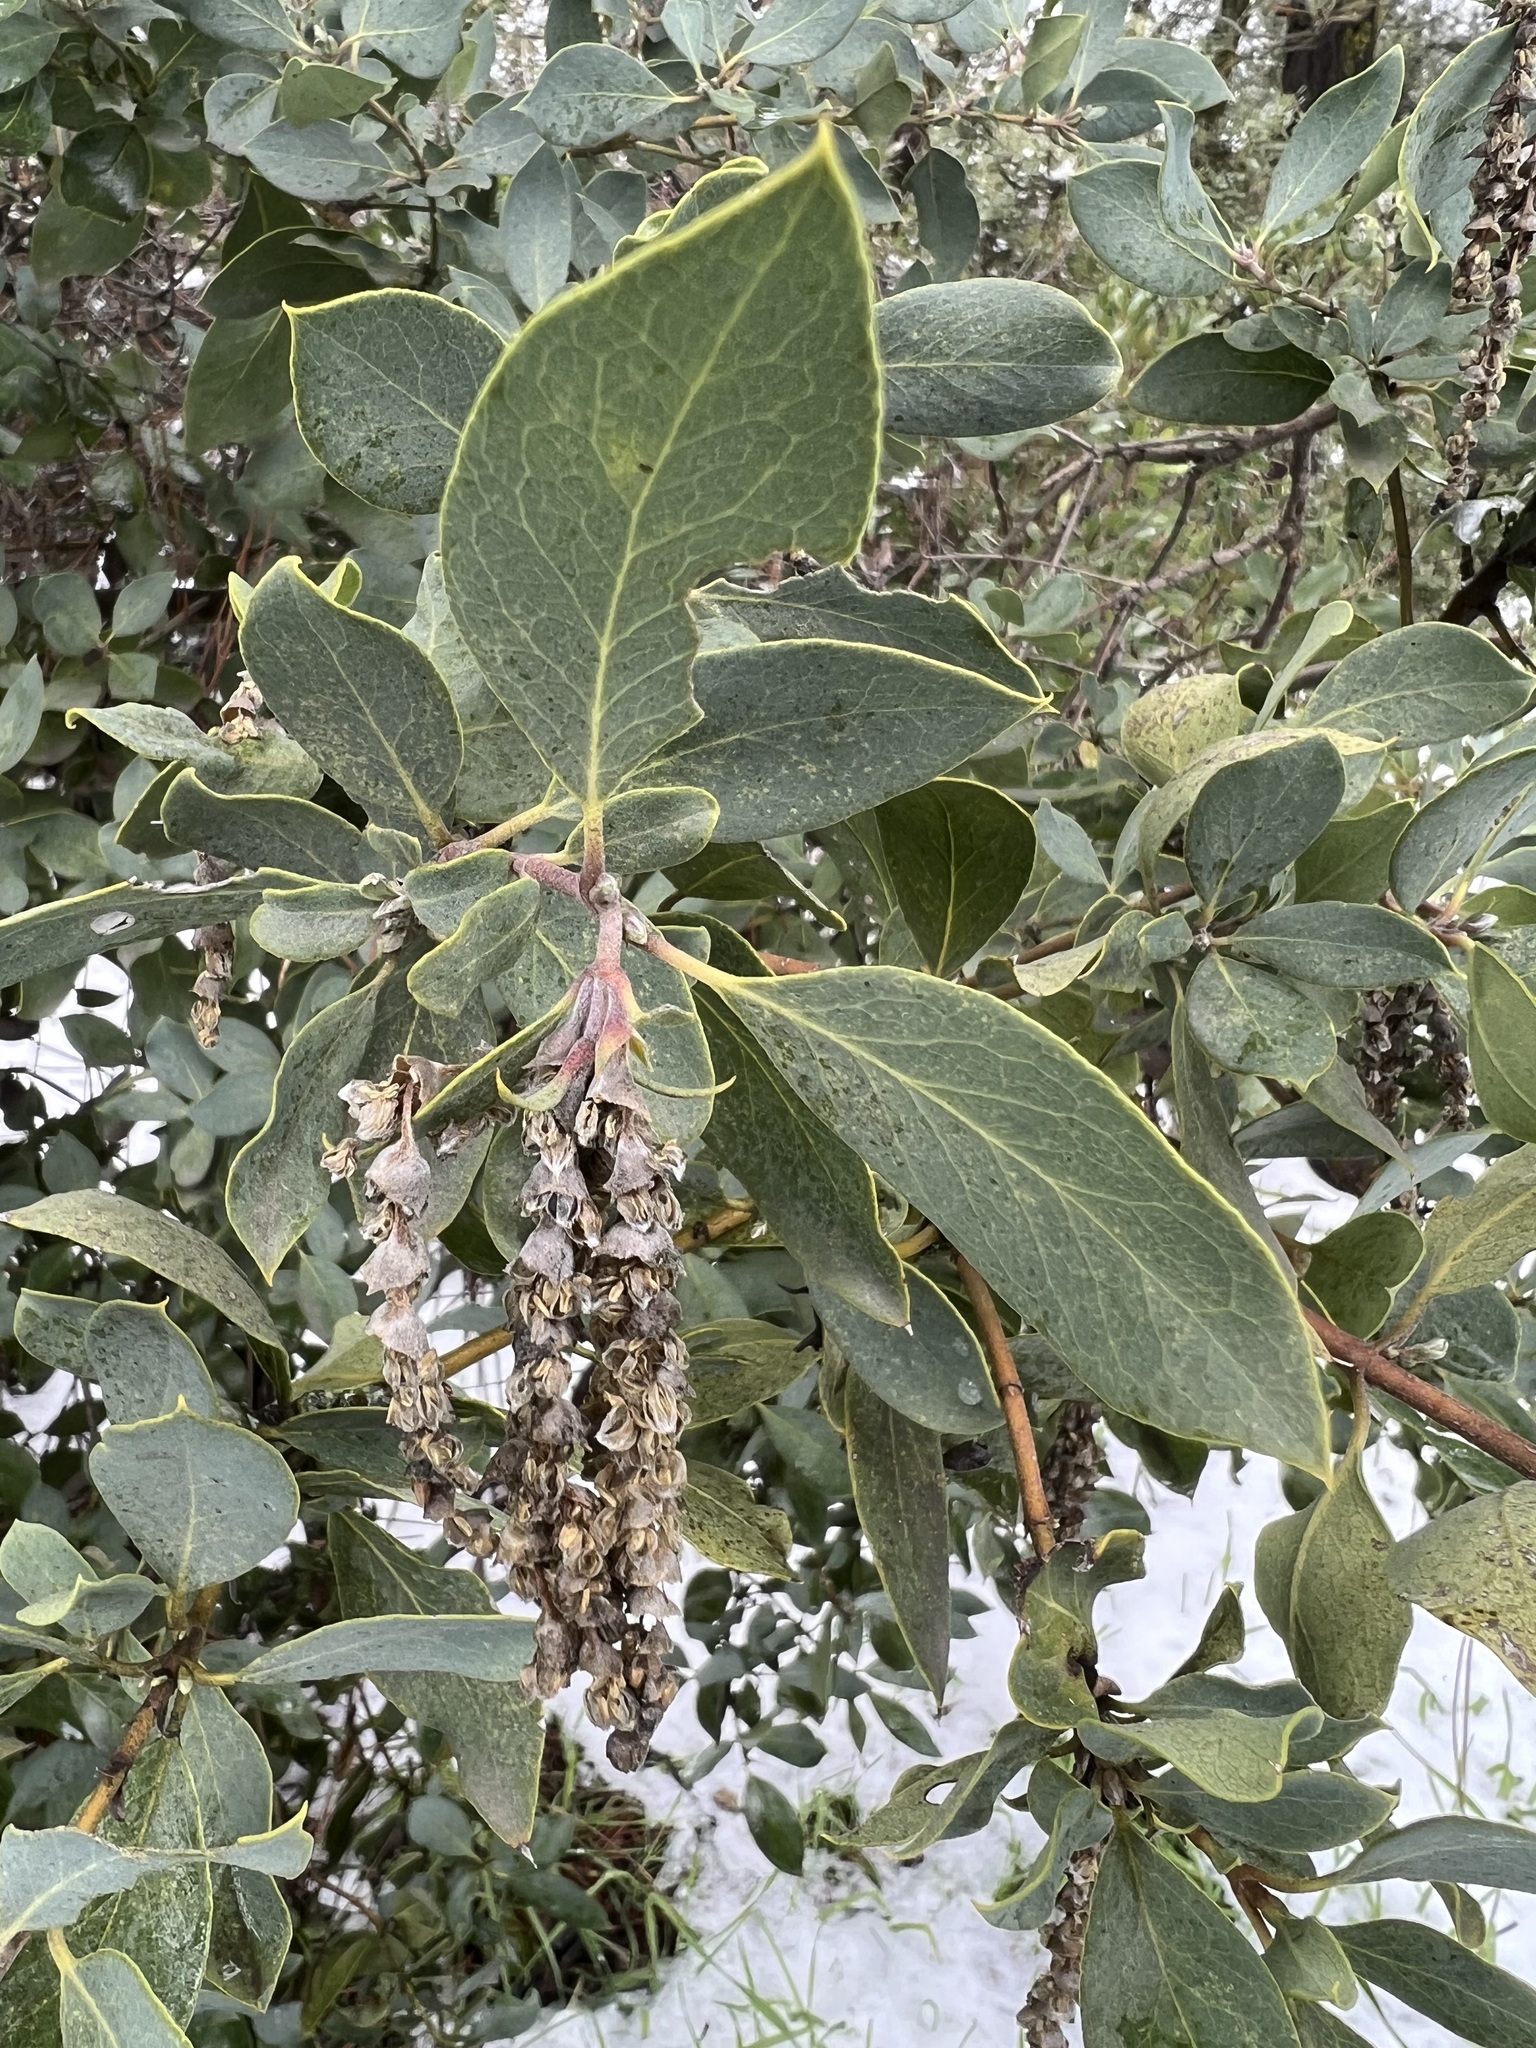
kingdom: Plantae
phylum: Tracheophyta
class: Magnoliopsida
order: Garryales
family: Garryaceae
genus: Garrya
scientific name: Garrya flavescens
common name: Ashy silk-tassel
